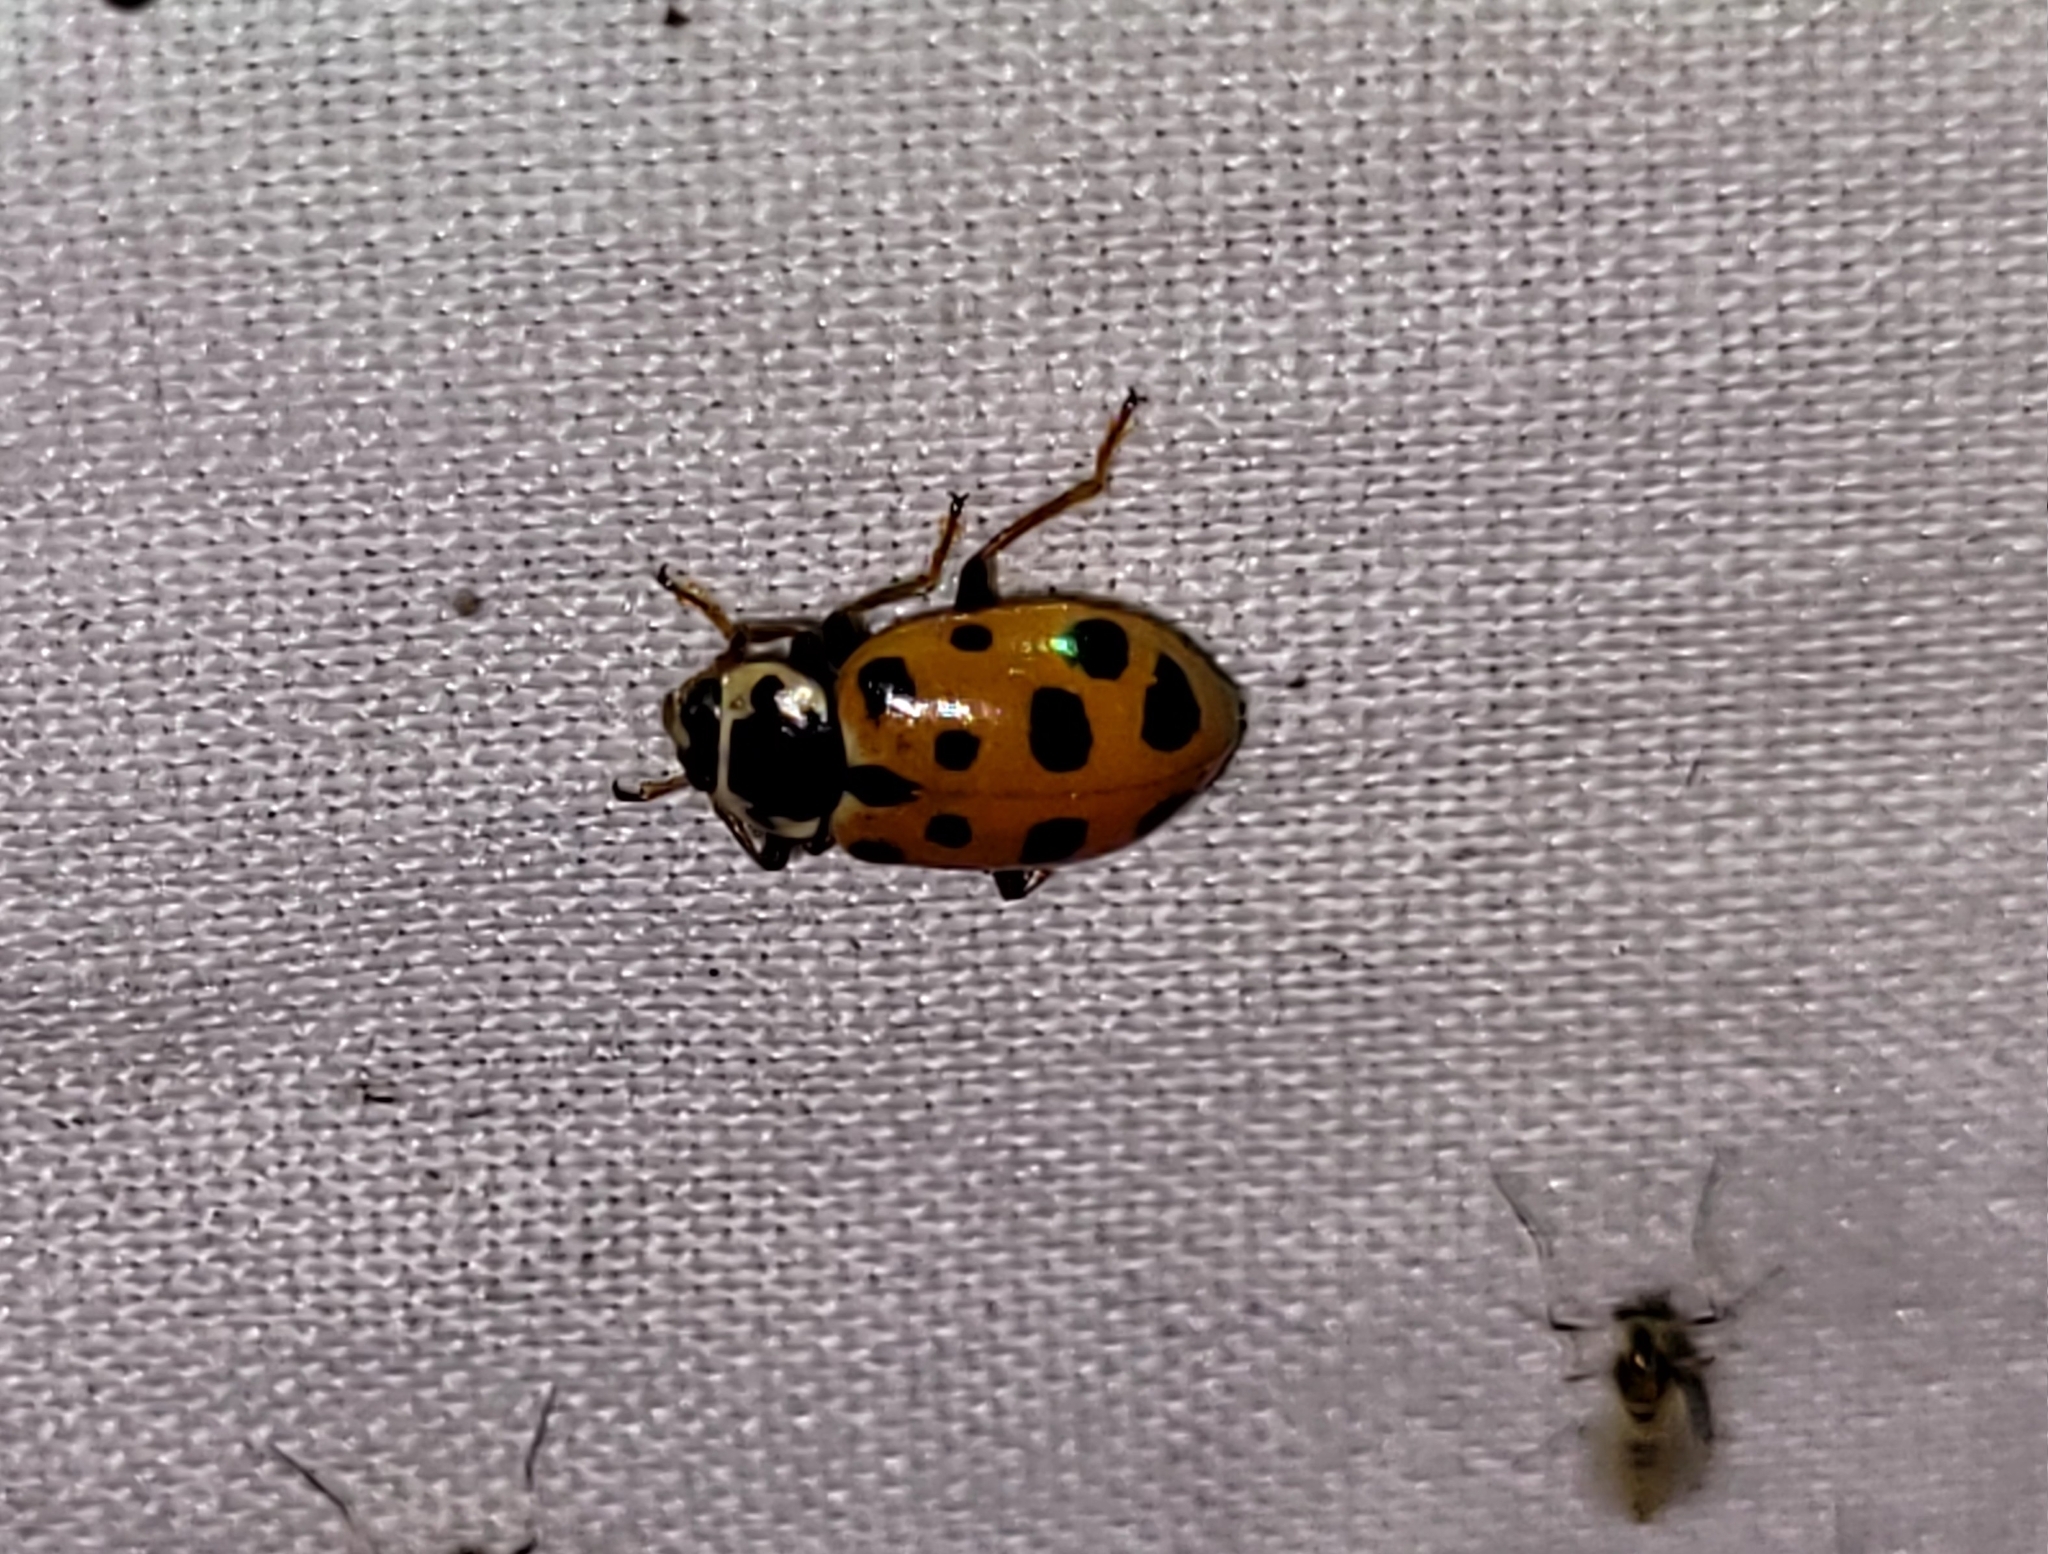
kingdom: Animalia
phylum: Arthropoda
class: Insecta
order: Coleoptera
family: Coccinellidae
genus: Hippodamia
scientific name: Hippodamia tredecimpunctata
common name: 13-spot ladybird
